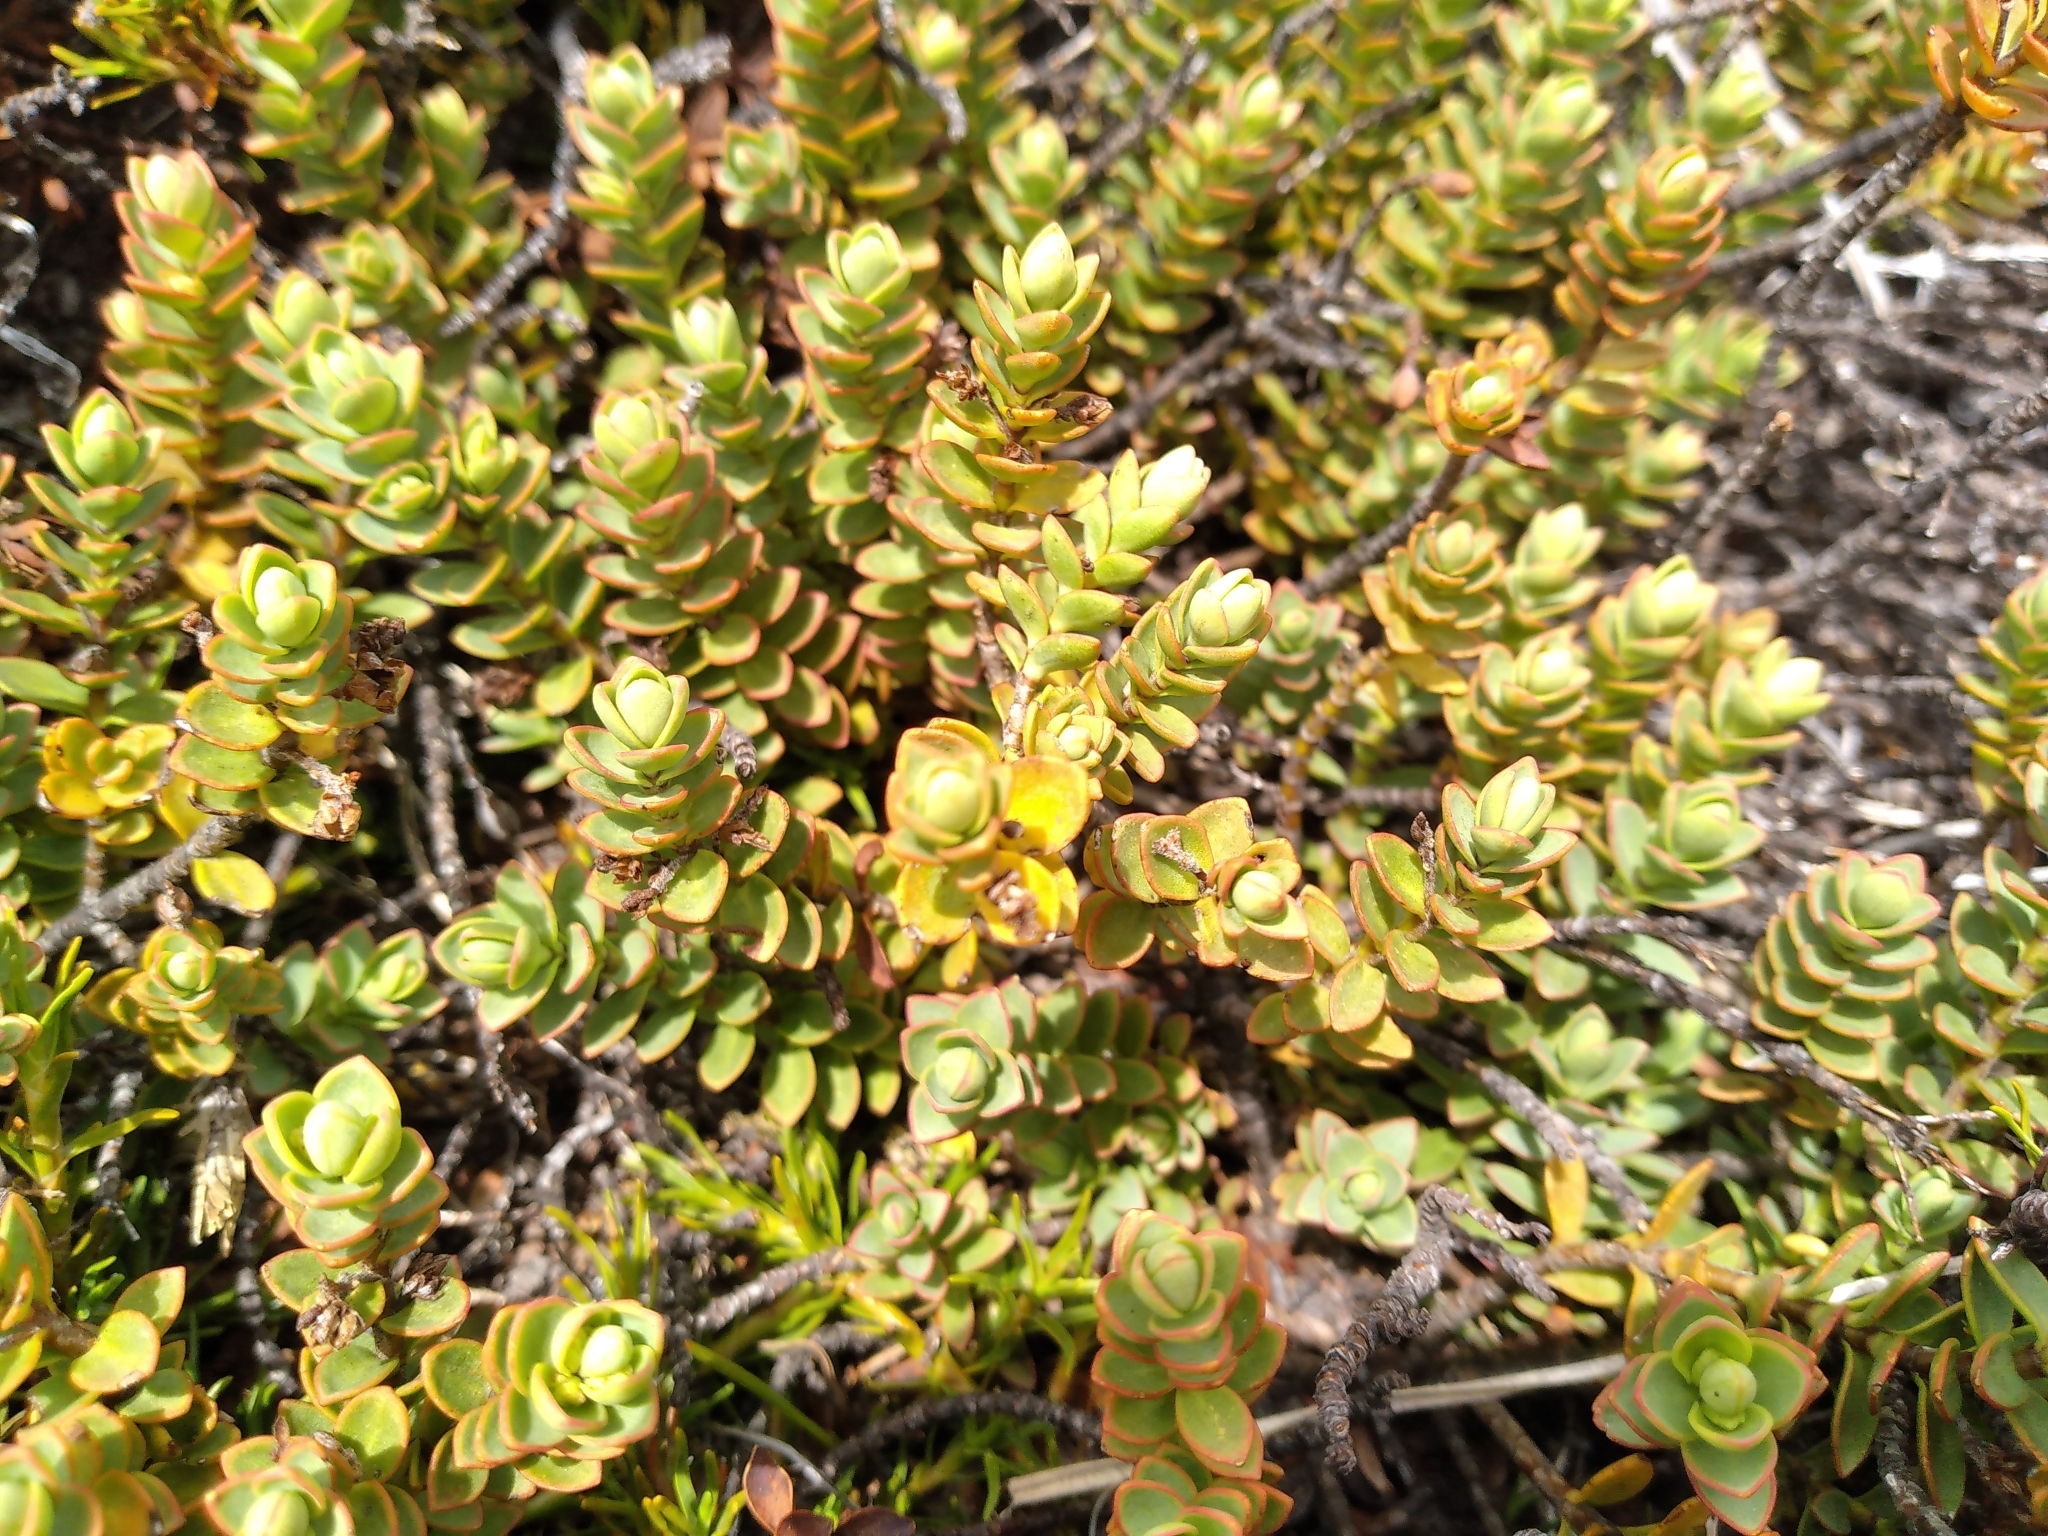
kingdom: Plantae
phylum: Tracheophyta
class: Magnoliopsida
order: Lamiales
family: Plantaginaceae
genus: Veronica
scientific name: Veronica pinguifolia
